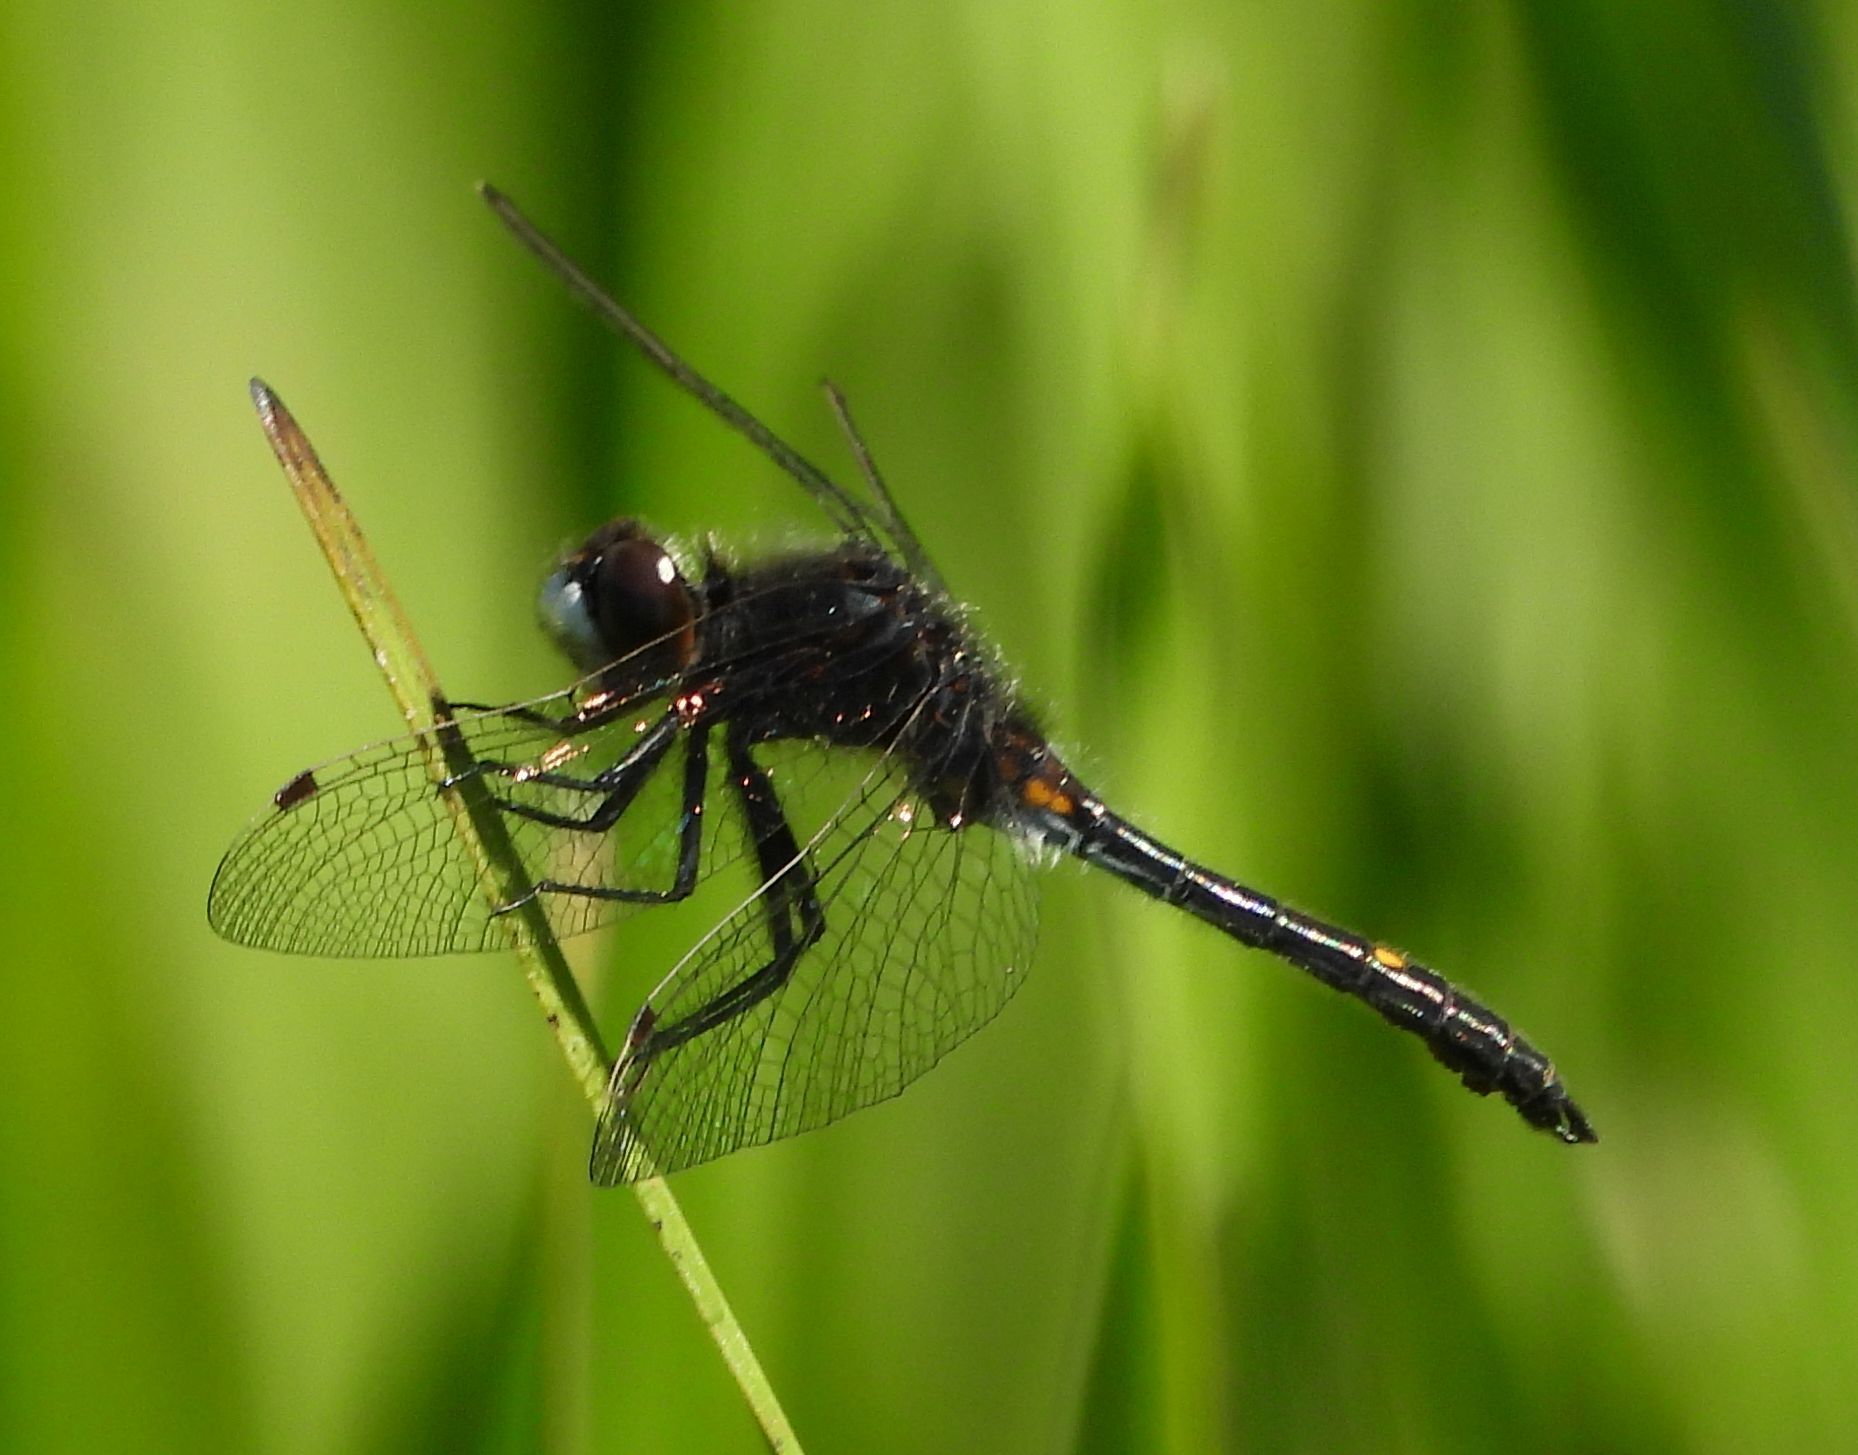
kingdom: Animalia
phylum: Arthropoda
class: Insecta
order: Odonata
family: Libellulidae
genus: Leucorrhinia
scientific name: Leucorrhinia intacta
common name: Dot-tailed whiteface
